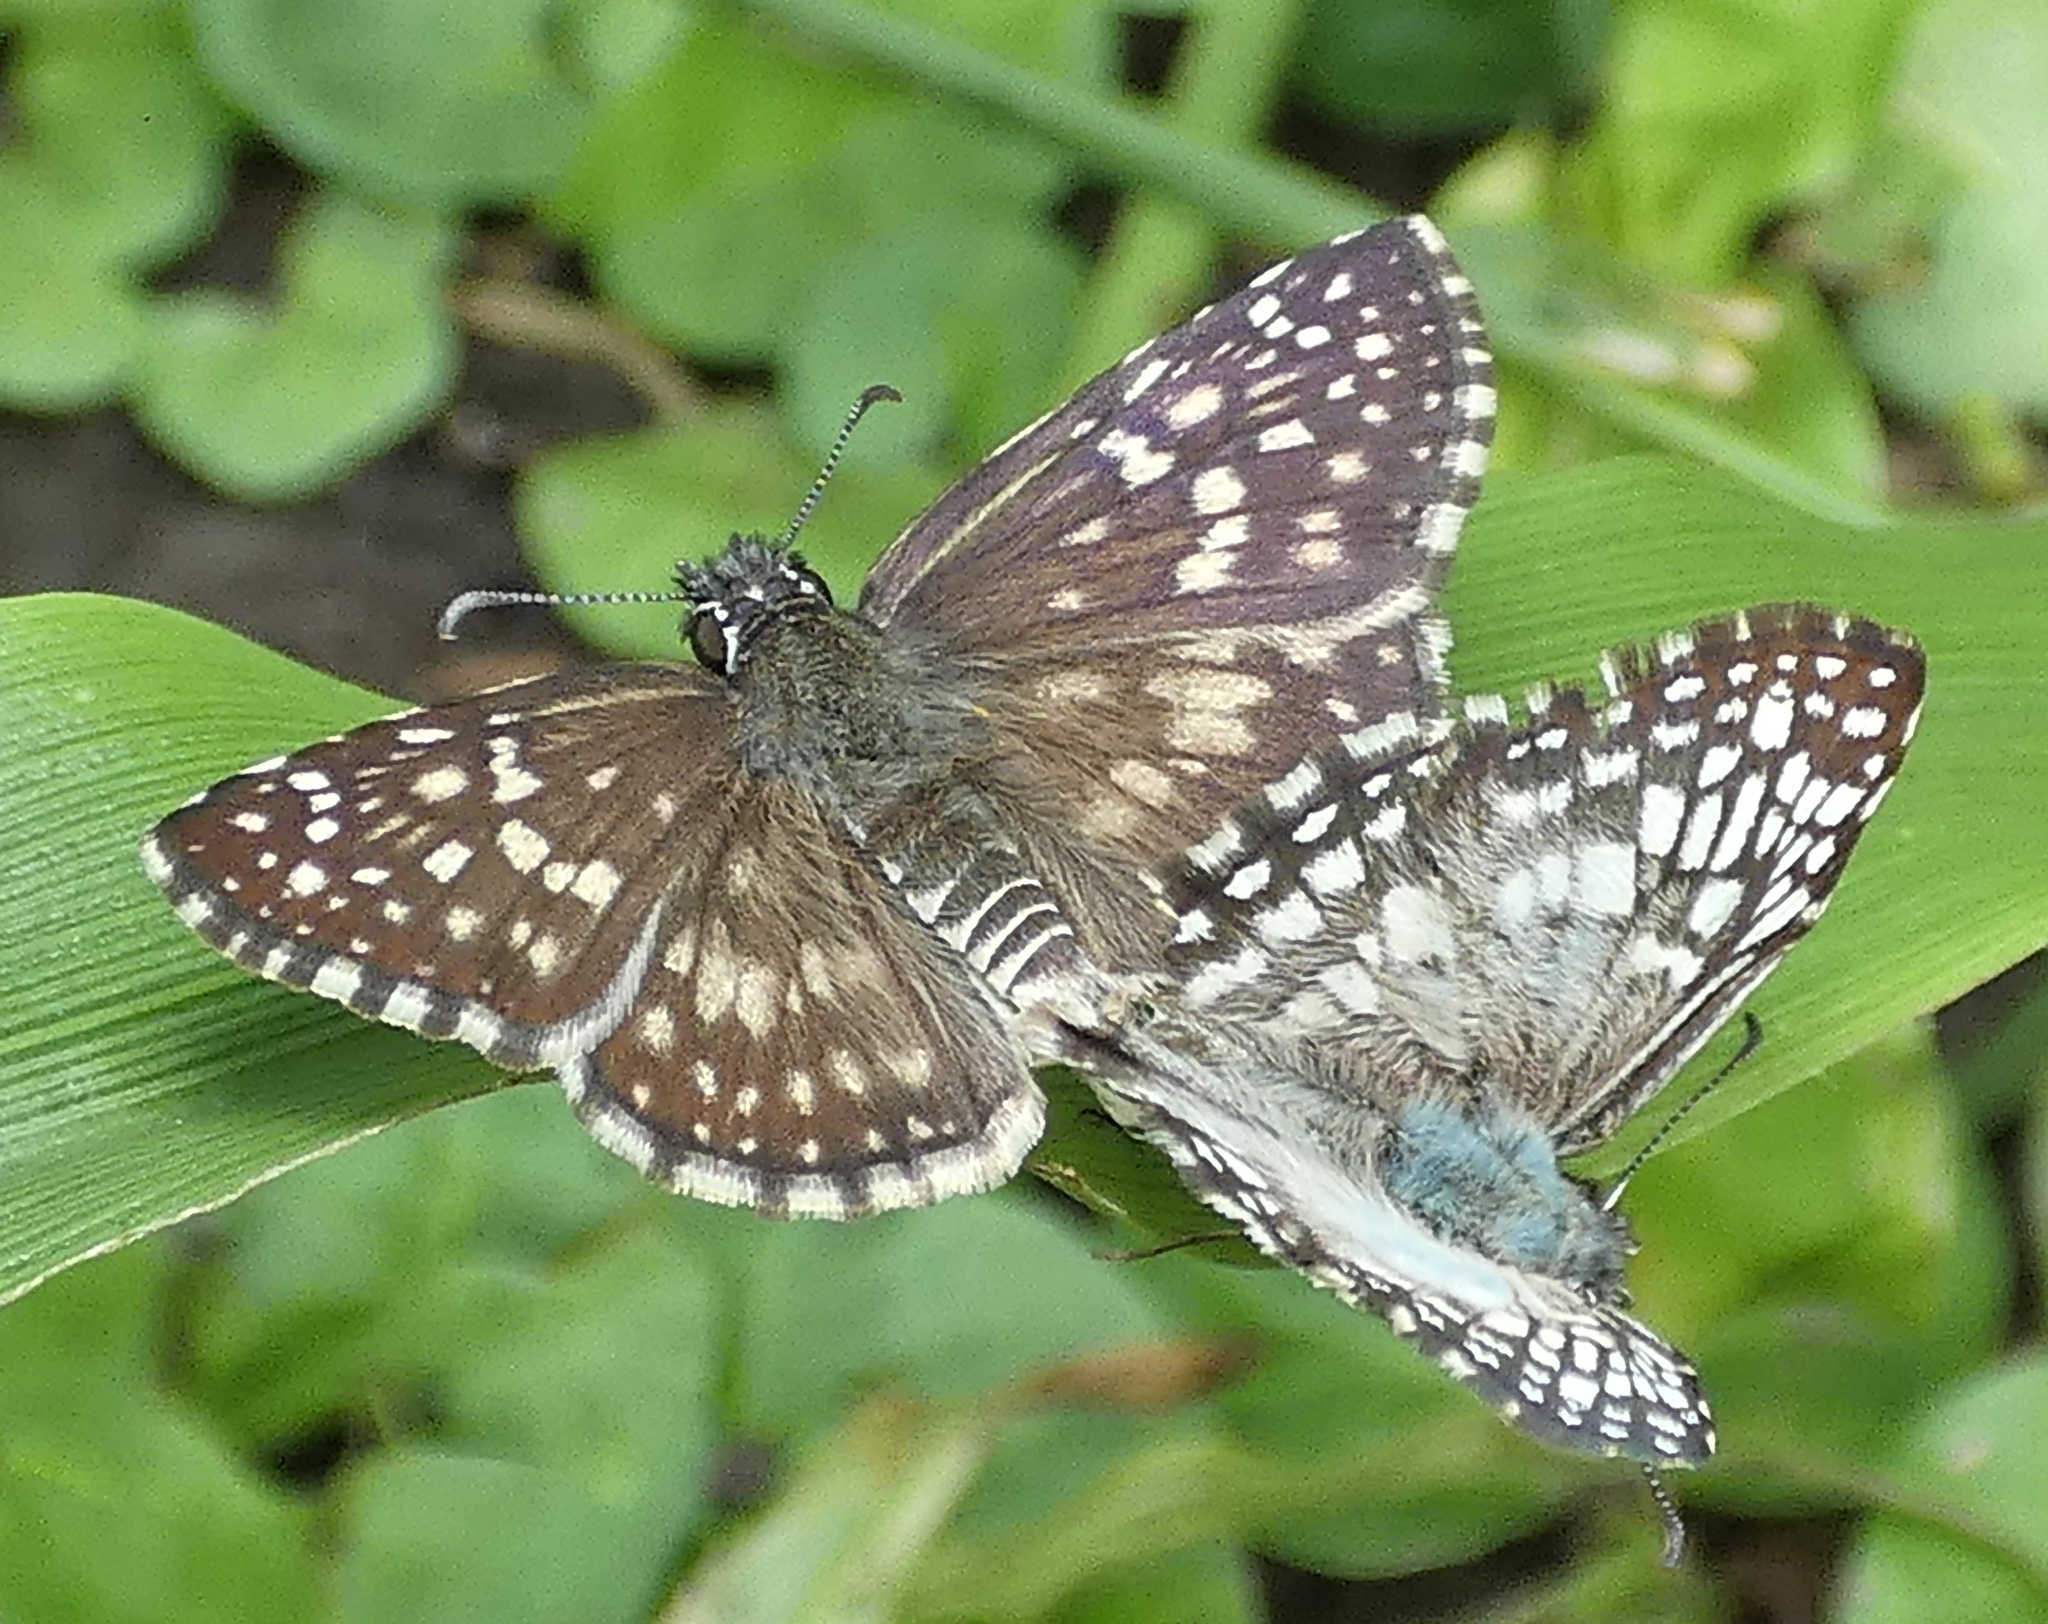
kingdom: Animalia
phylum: Arthropoda
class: Insecta
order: Lepidoptera
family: Hesperiidae
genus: Pyrgus
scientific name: Pyrgus oileus
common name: Tropical checkered-skipper
